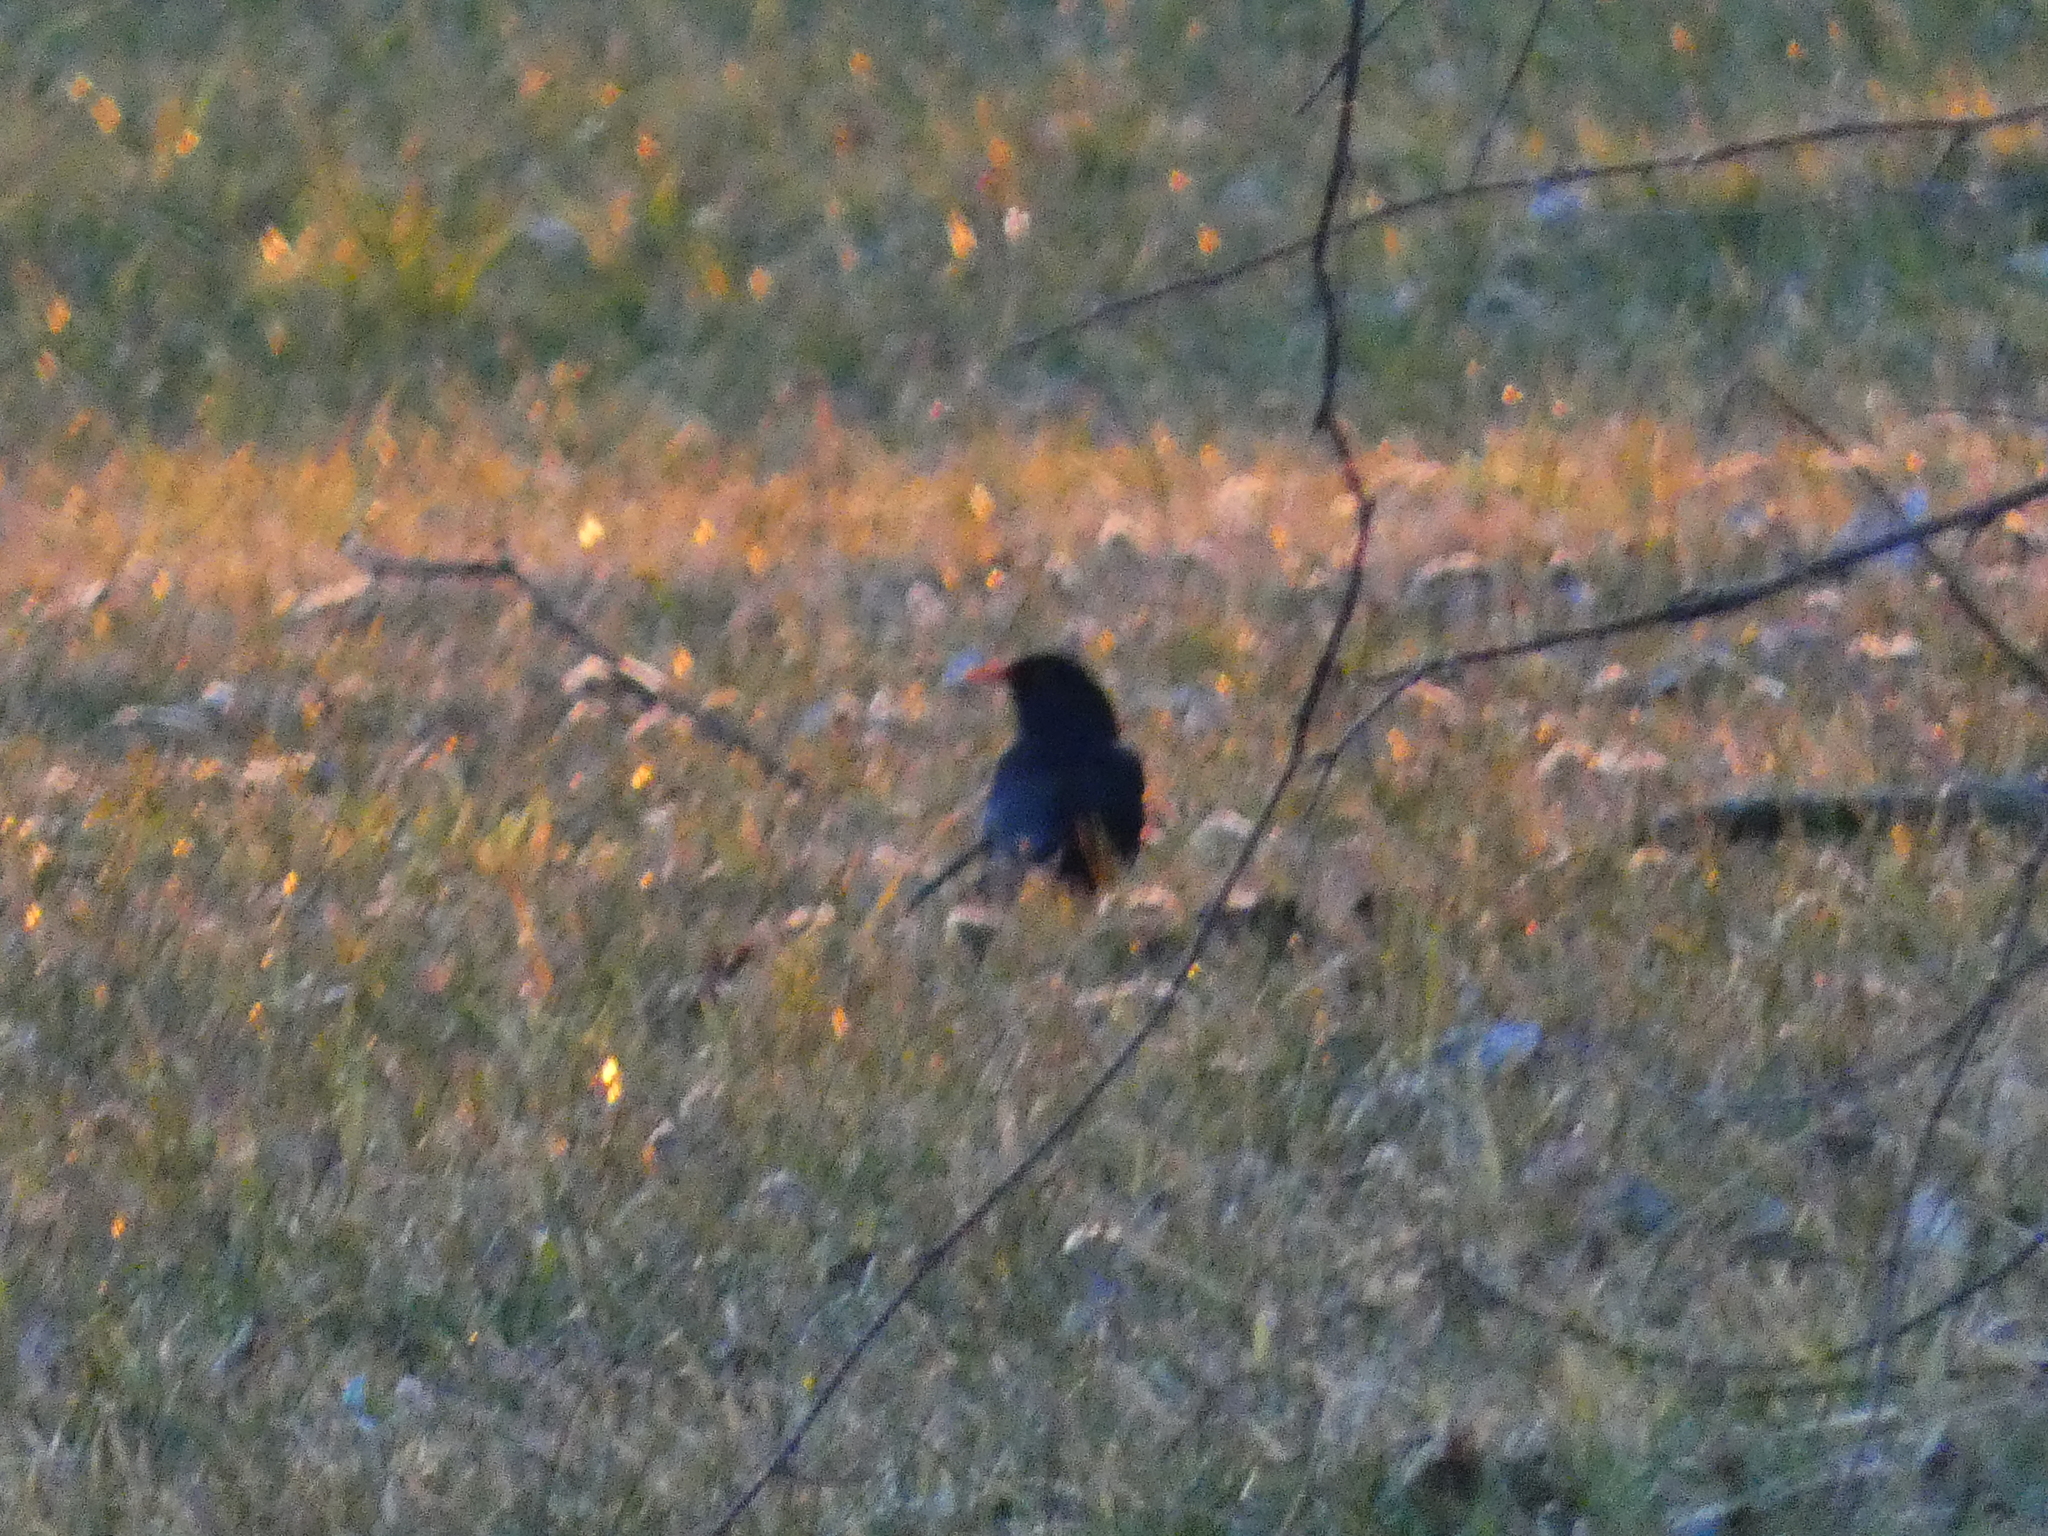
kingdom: Animalia
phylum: Chordata
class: Aves
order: Passeriformes
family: Turdidae
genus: Turdus
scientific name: Turdus merula
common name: Common blackbird
